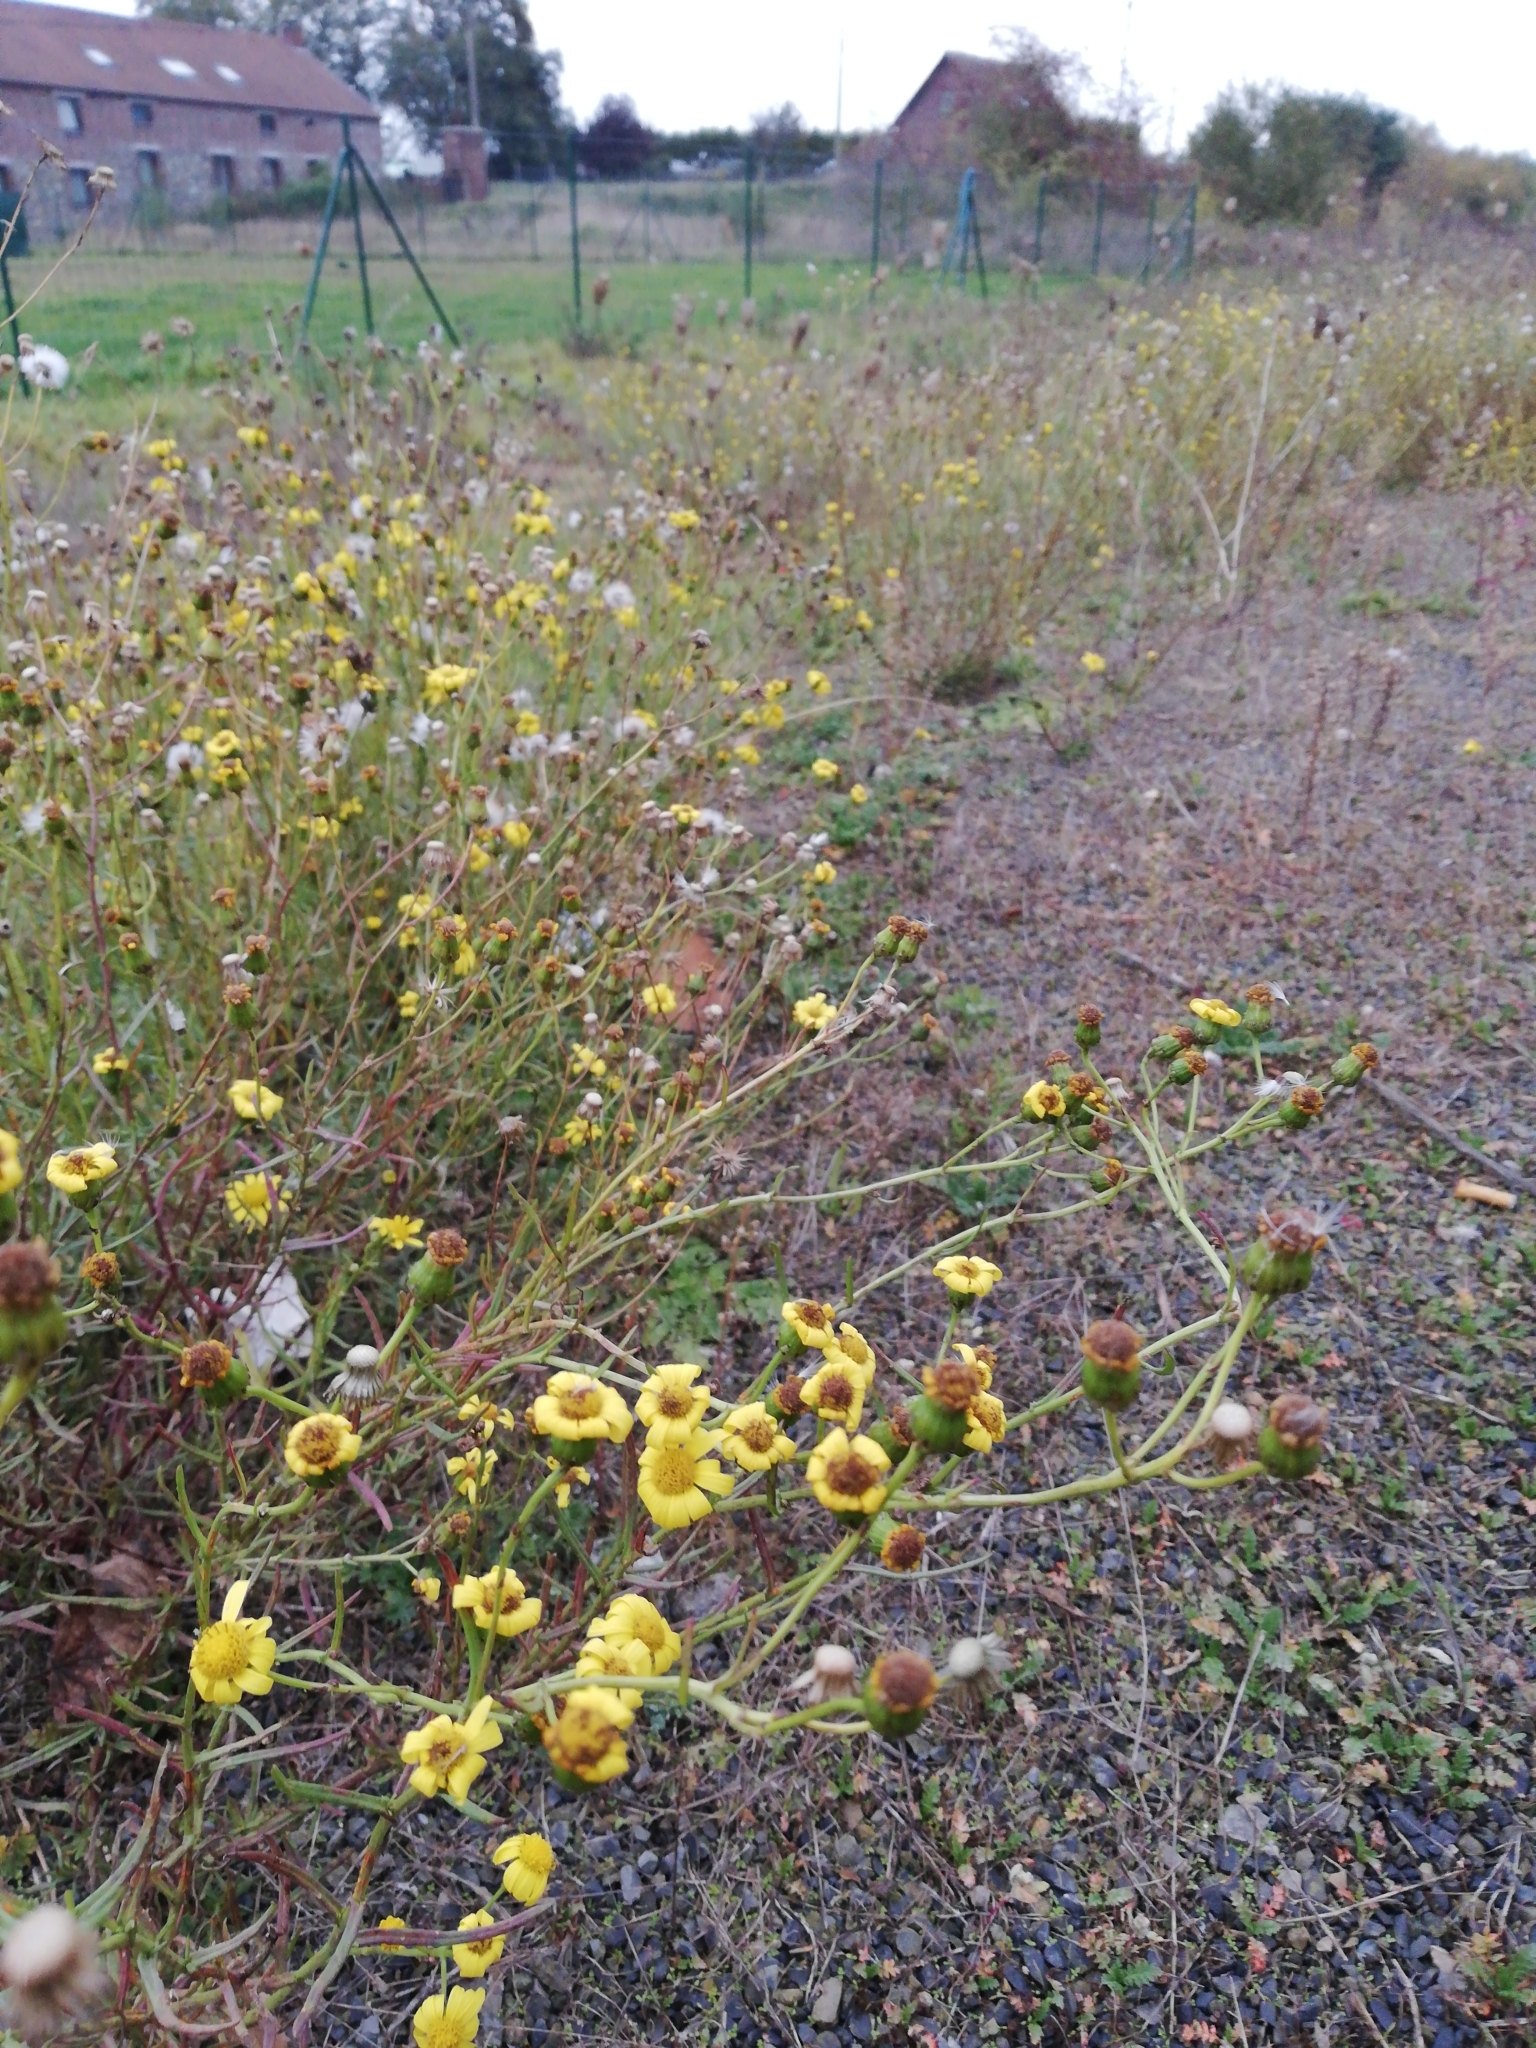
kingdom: Plantae
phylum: Tracheophyta
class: Magnoliopsida
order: Asterales
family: Asteraceae
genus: Senecio
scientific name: Senecio inaequidens
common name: Narrow-leaved ragwort
